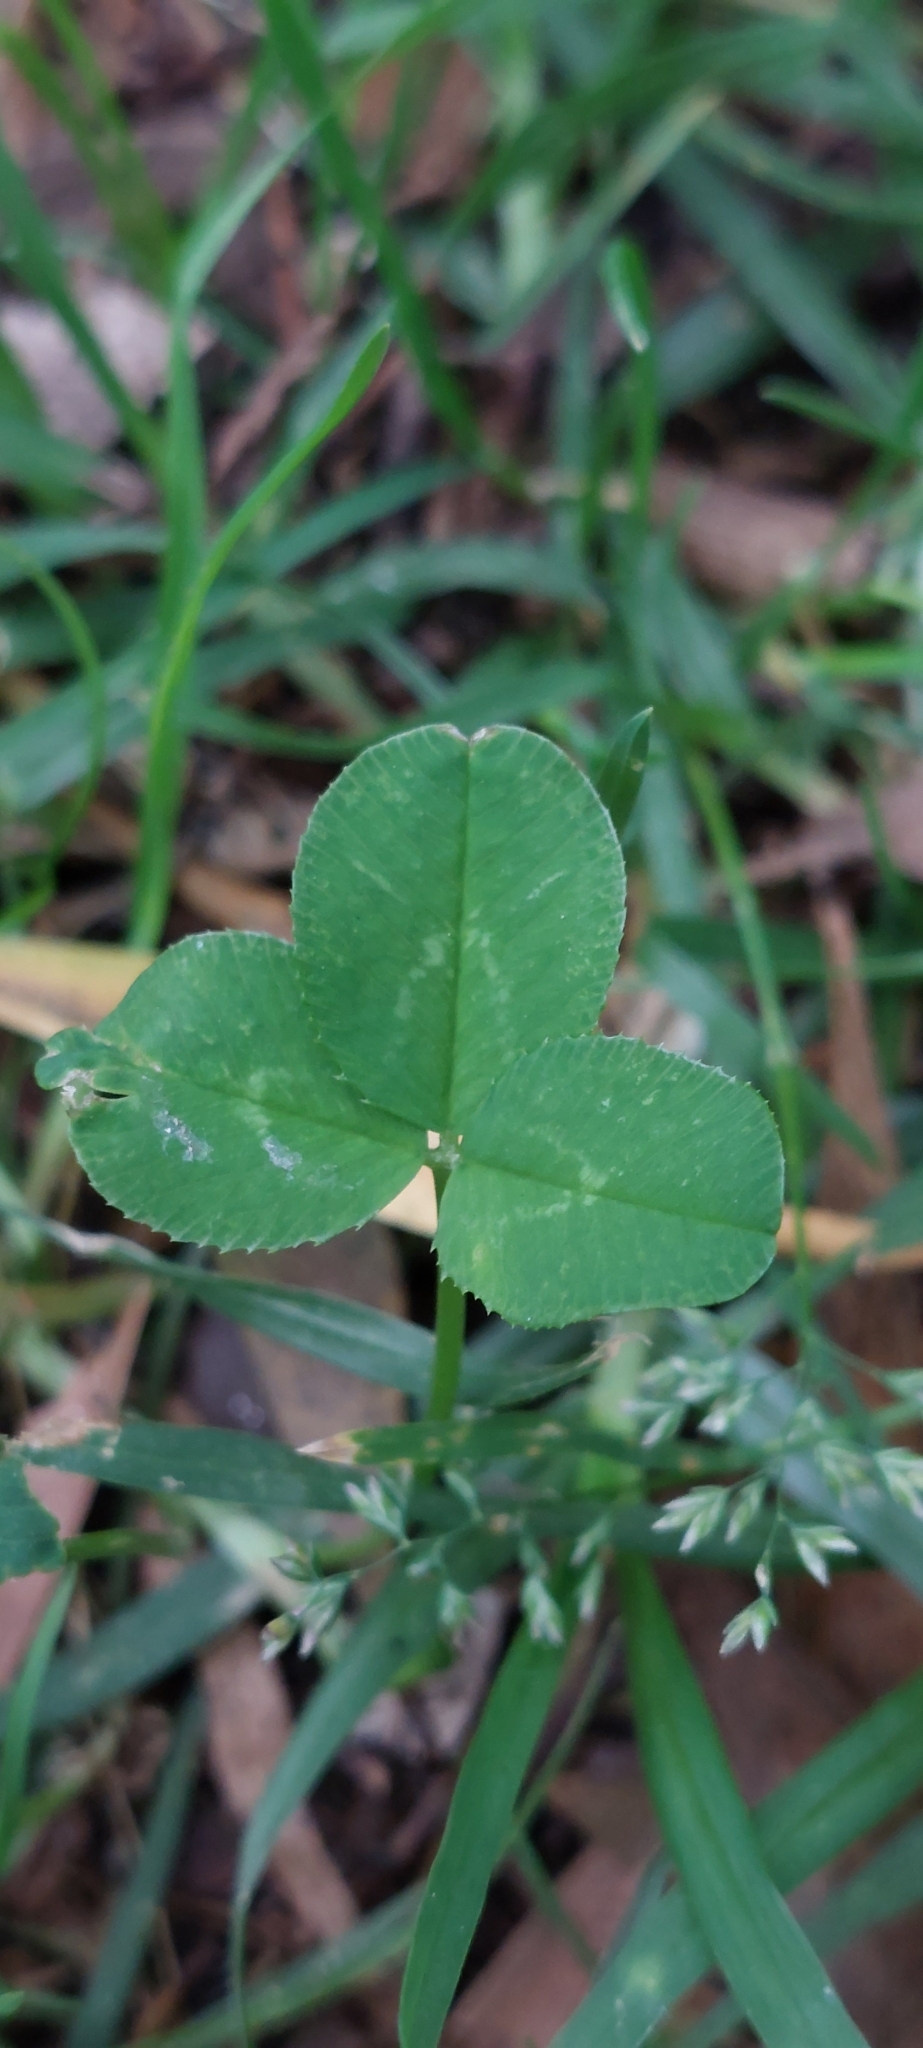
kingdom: Plantae
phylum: Tracheophyta
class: Magnoliopsida
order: Fabales
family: Fabaceae
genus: Trifolium
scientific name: Trifolium repens
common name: White clover
